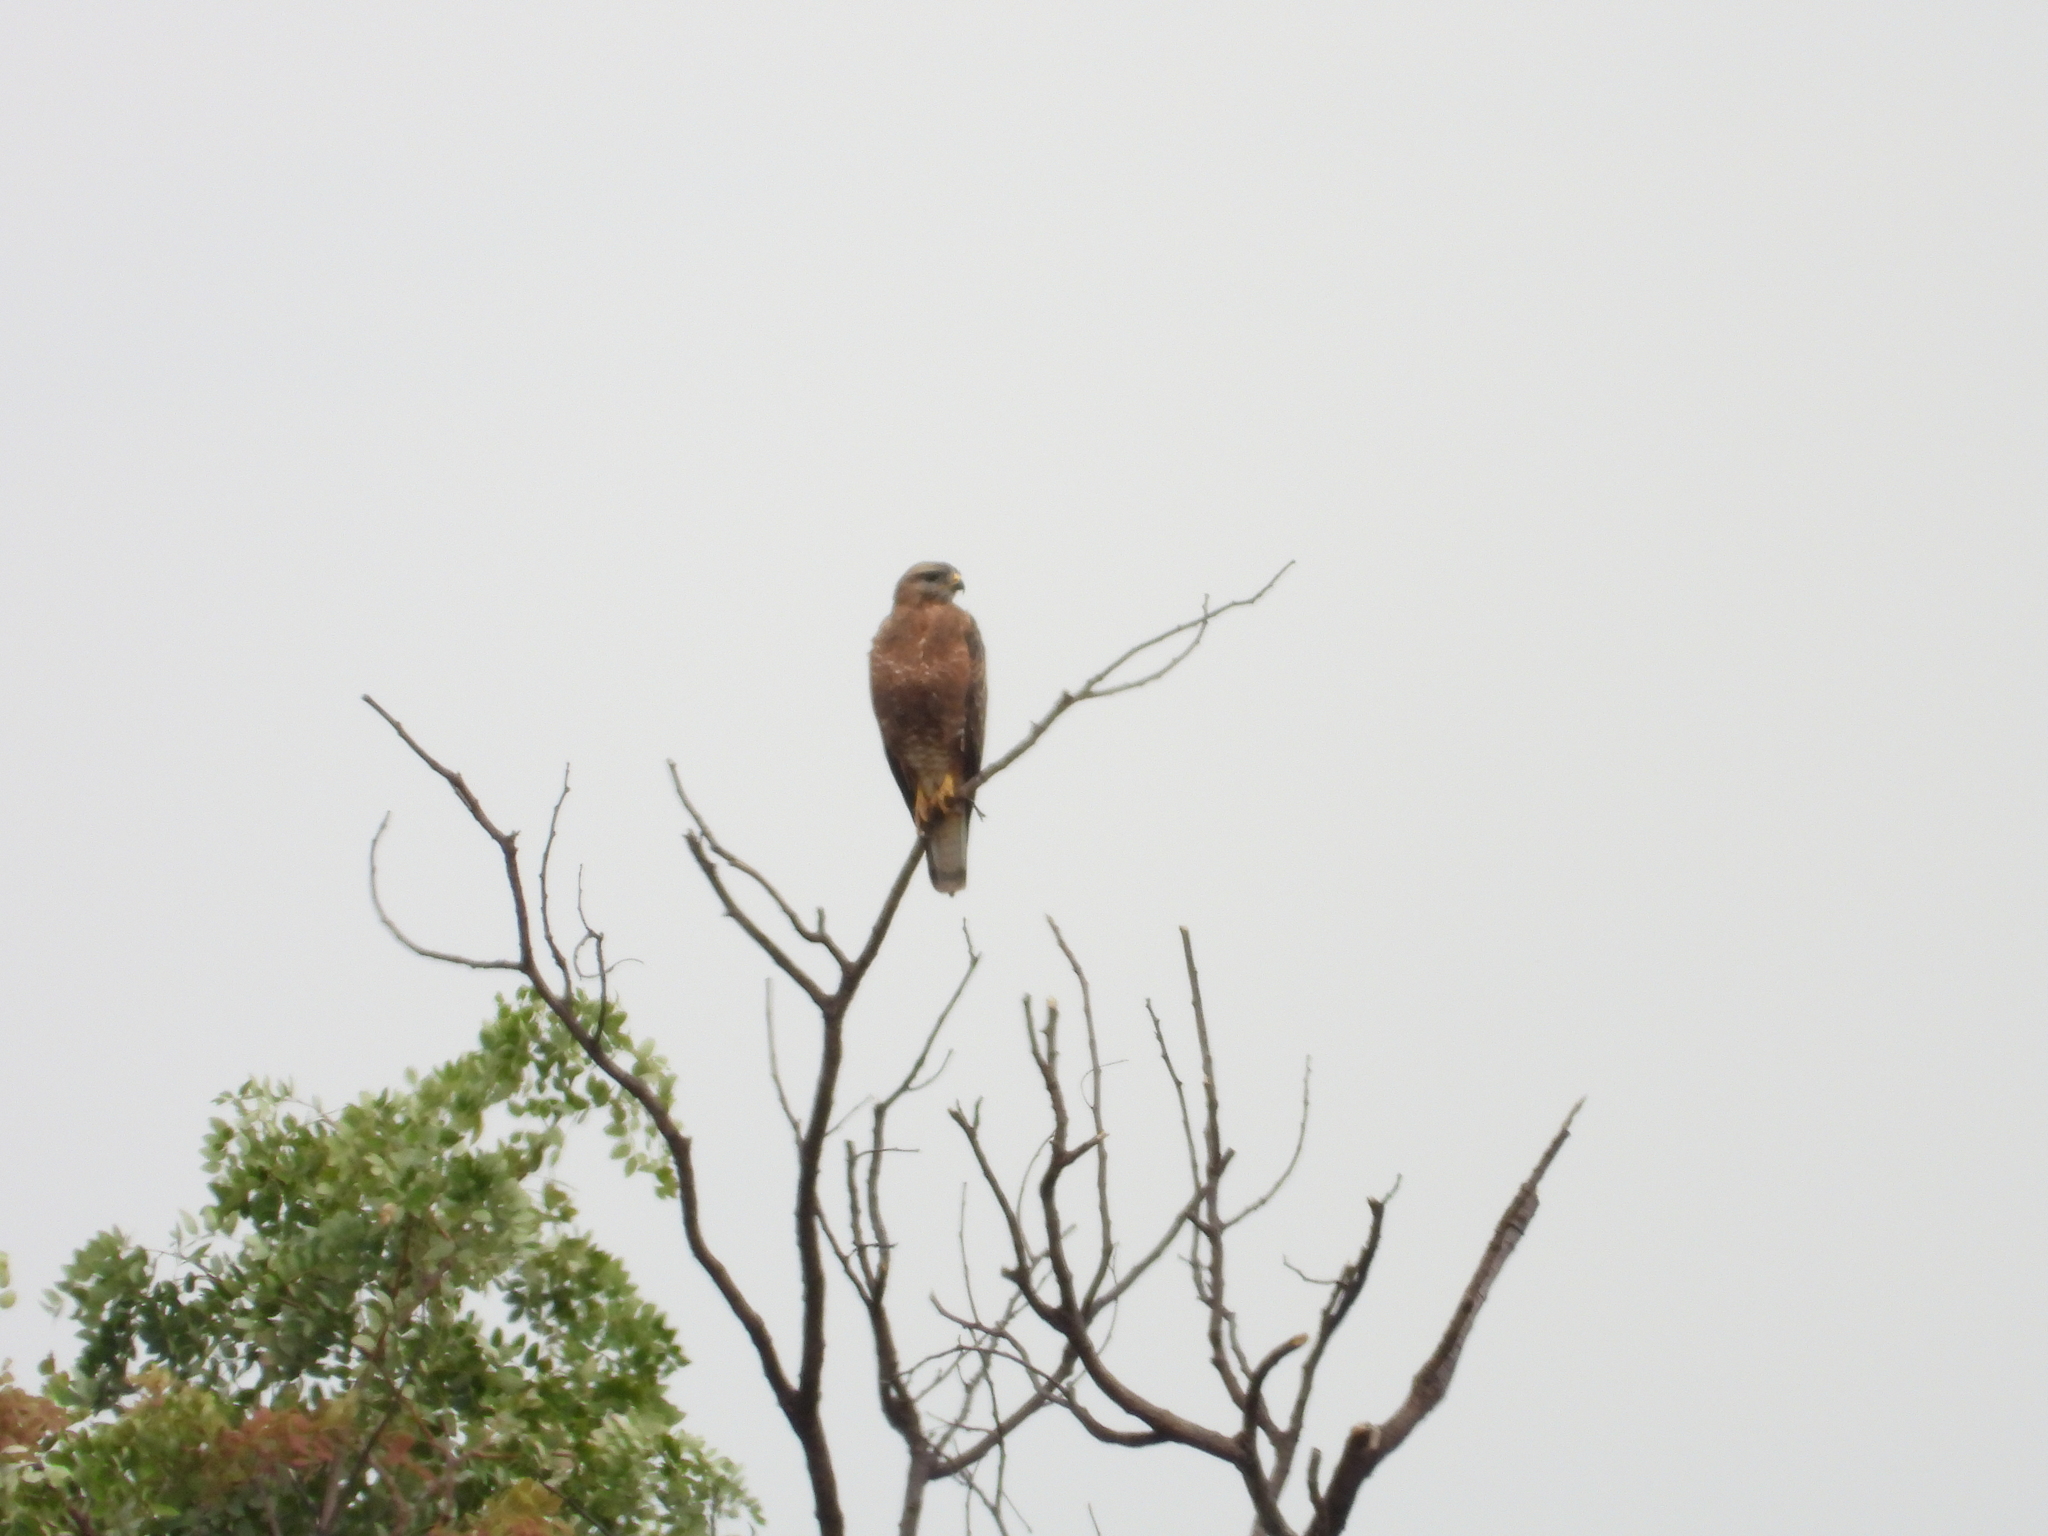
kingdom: Animalia
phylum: Chordata
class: Aves
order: Accipitriformes
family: Accipitridae
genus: Buteo
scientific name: Buteo buteo
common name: Common buzzard
